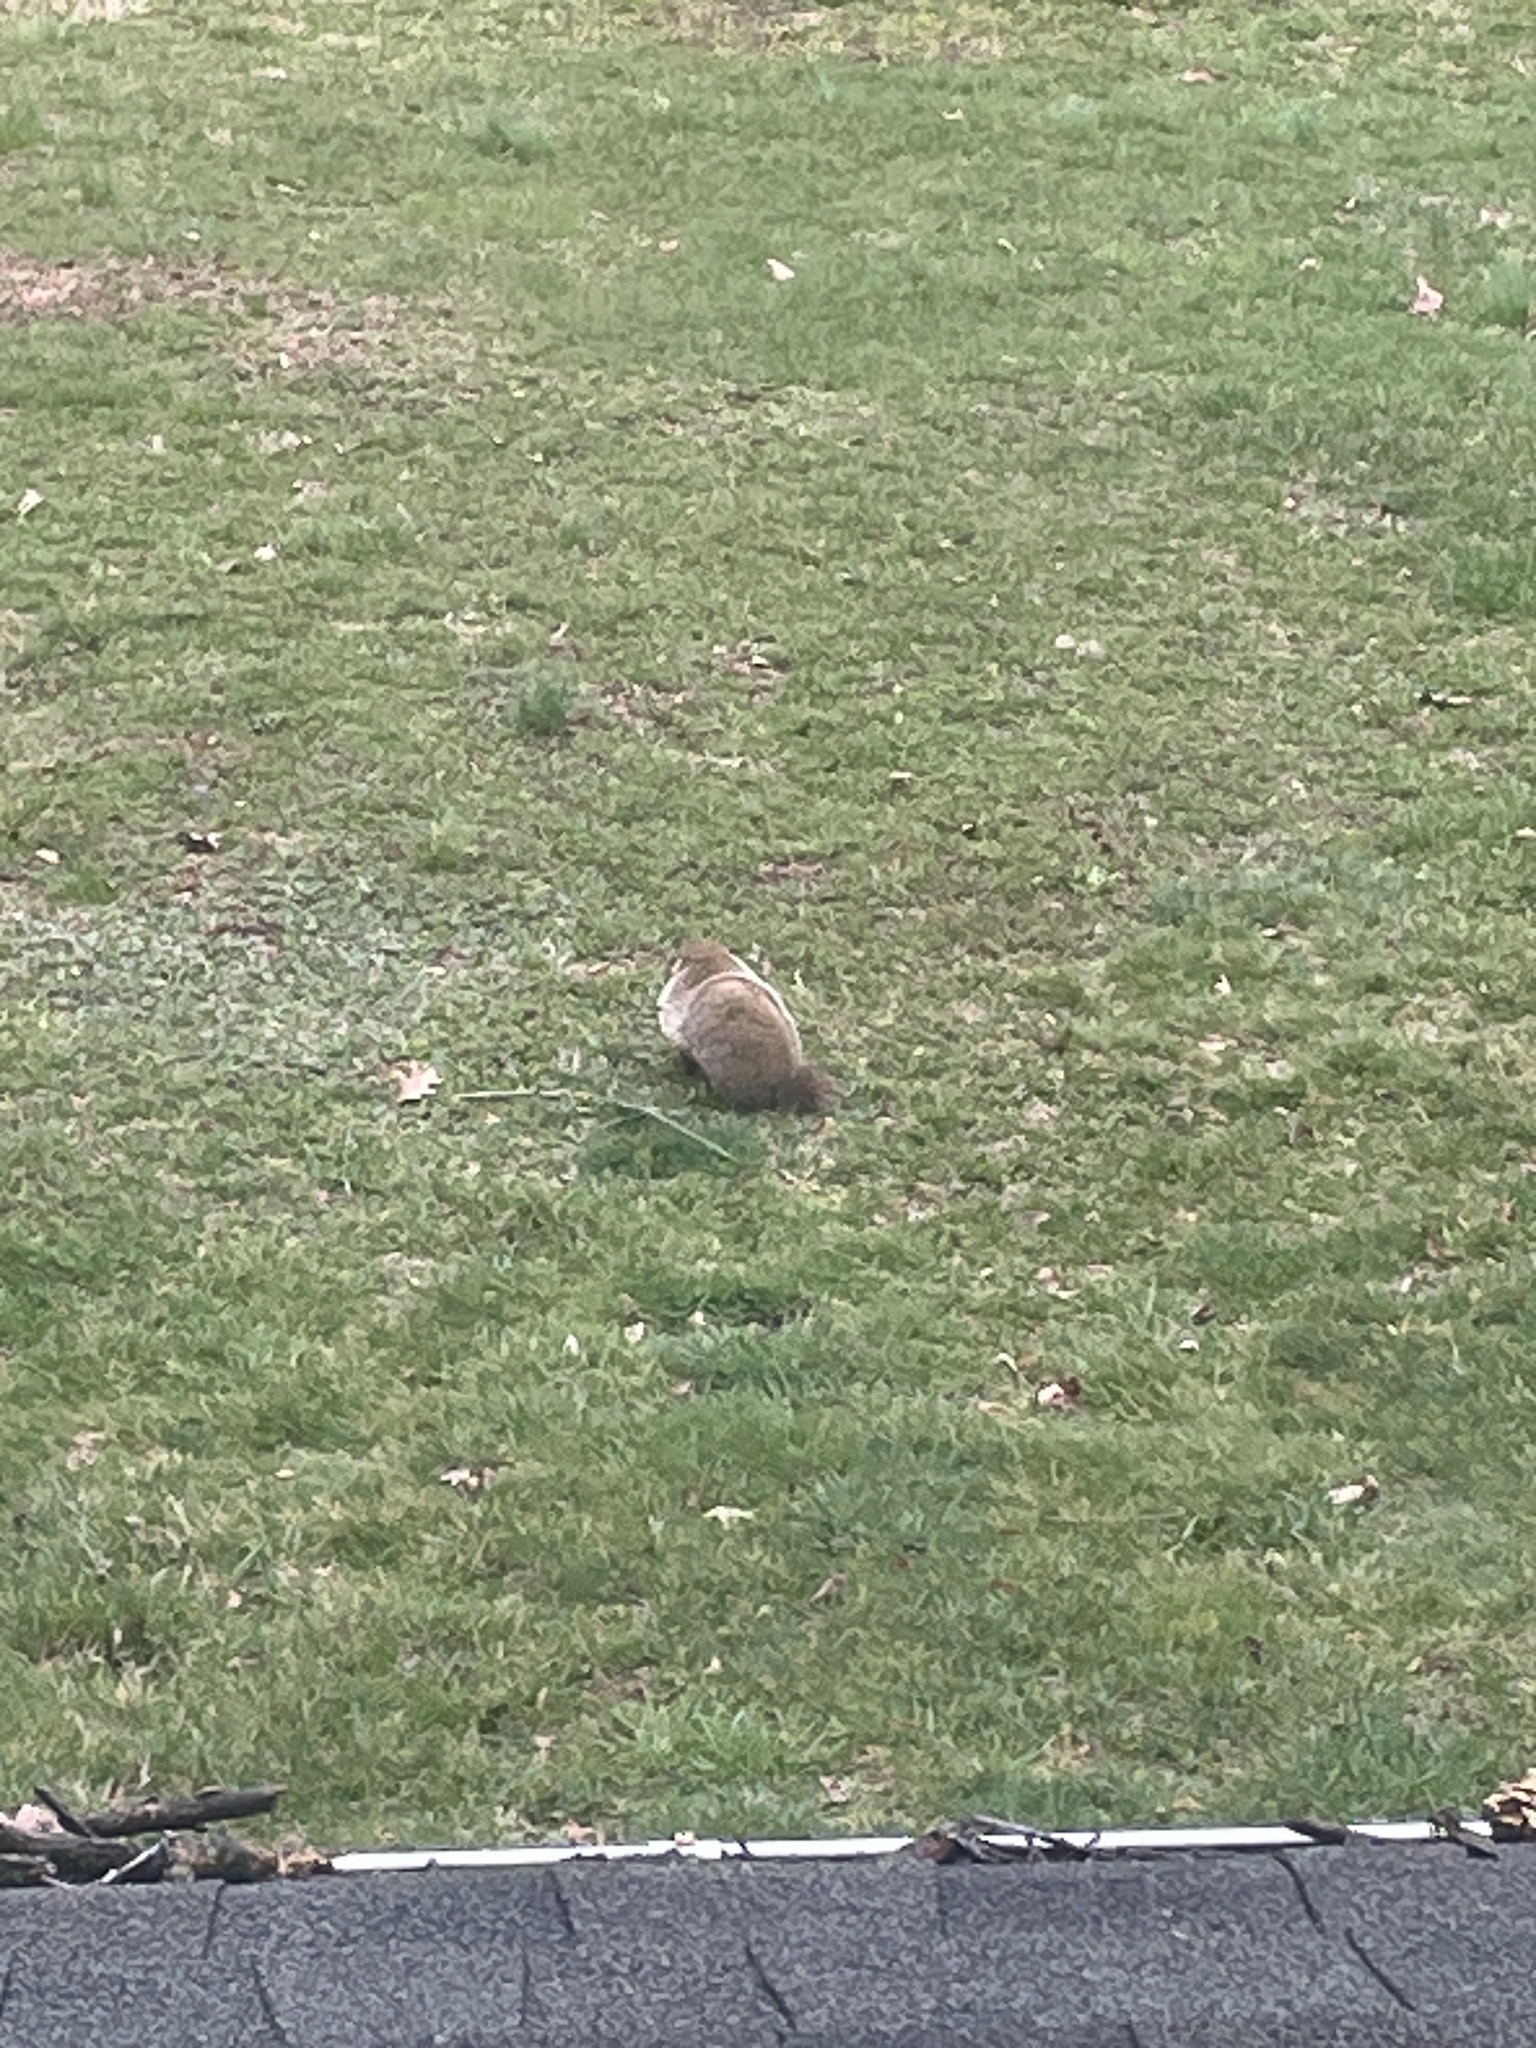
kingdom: Animalia
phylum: Chordata
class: Mammalia
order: Rodentia
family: Sciuridae
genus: Marmota
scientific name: Marmota monax
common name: Groundhog
